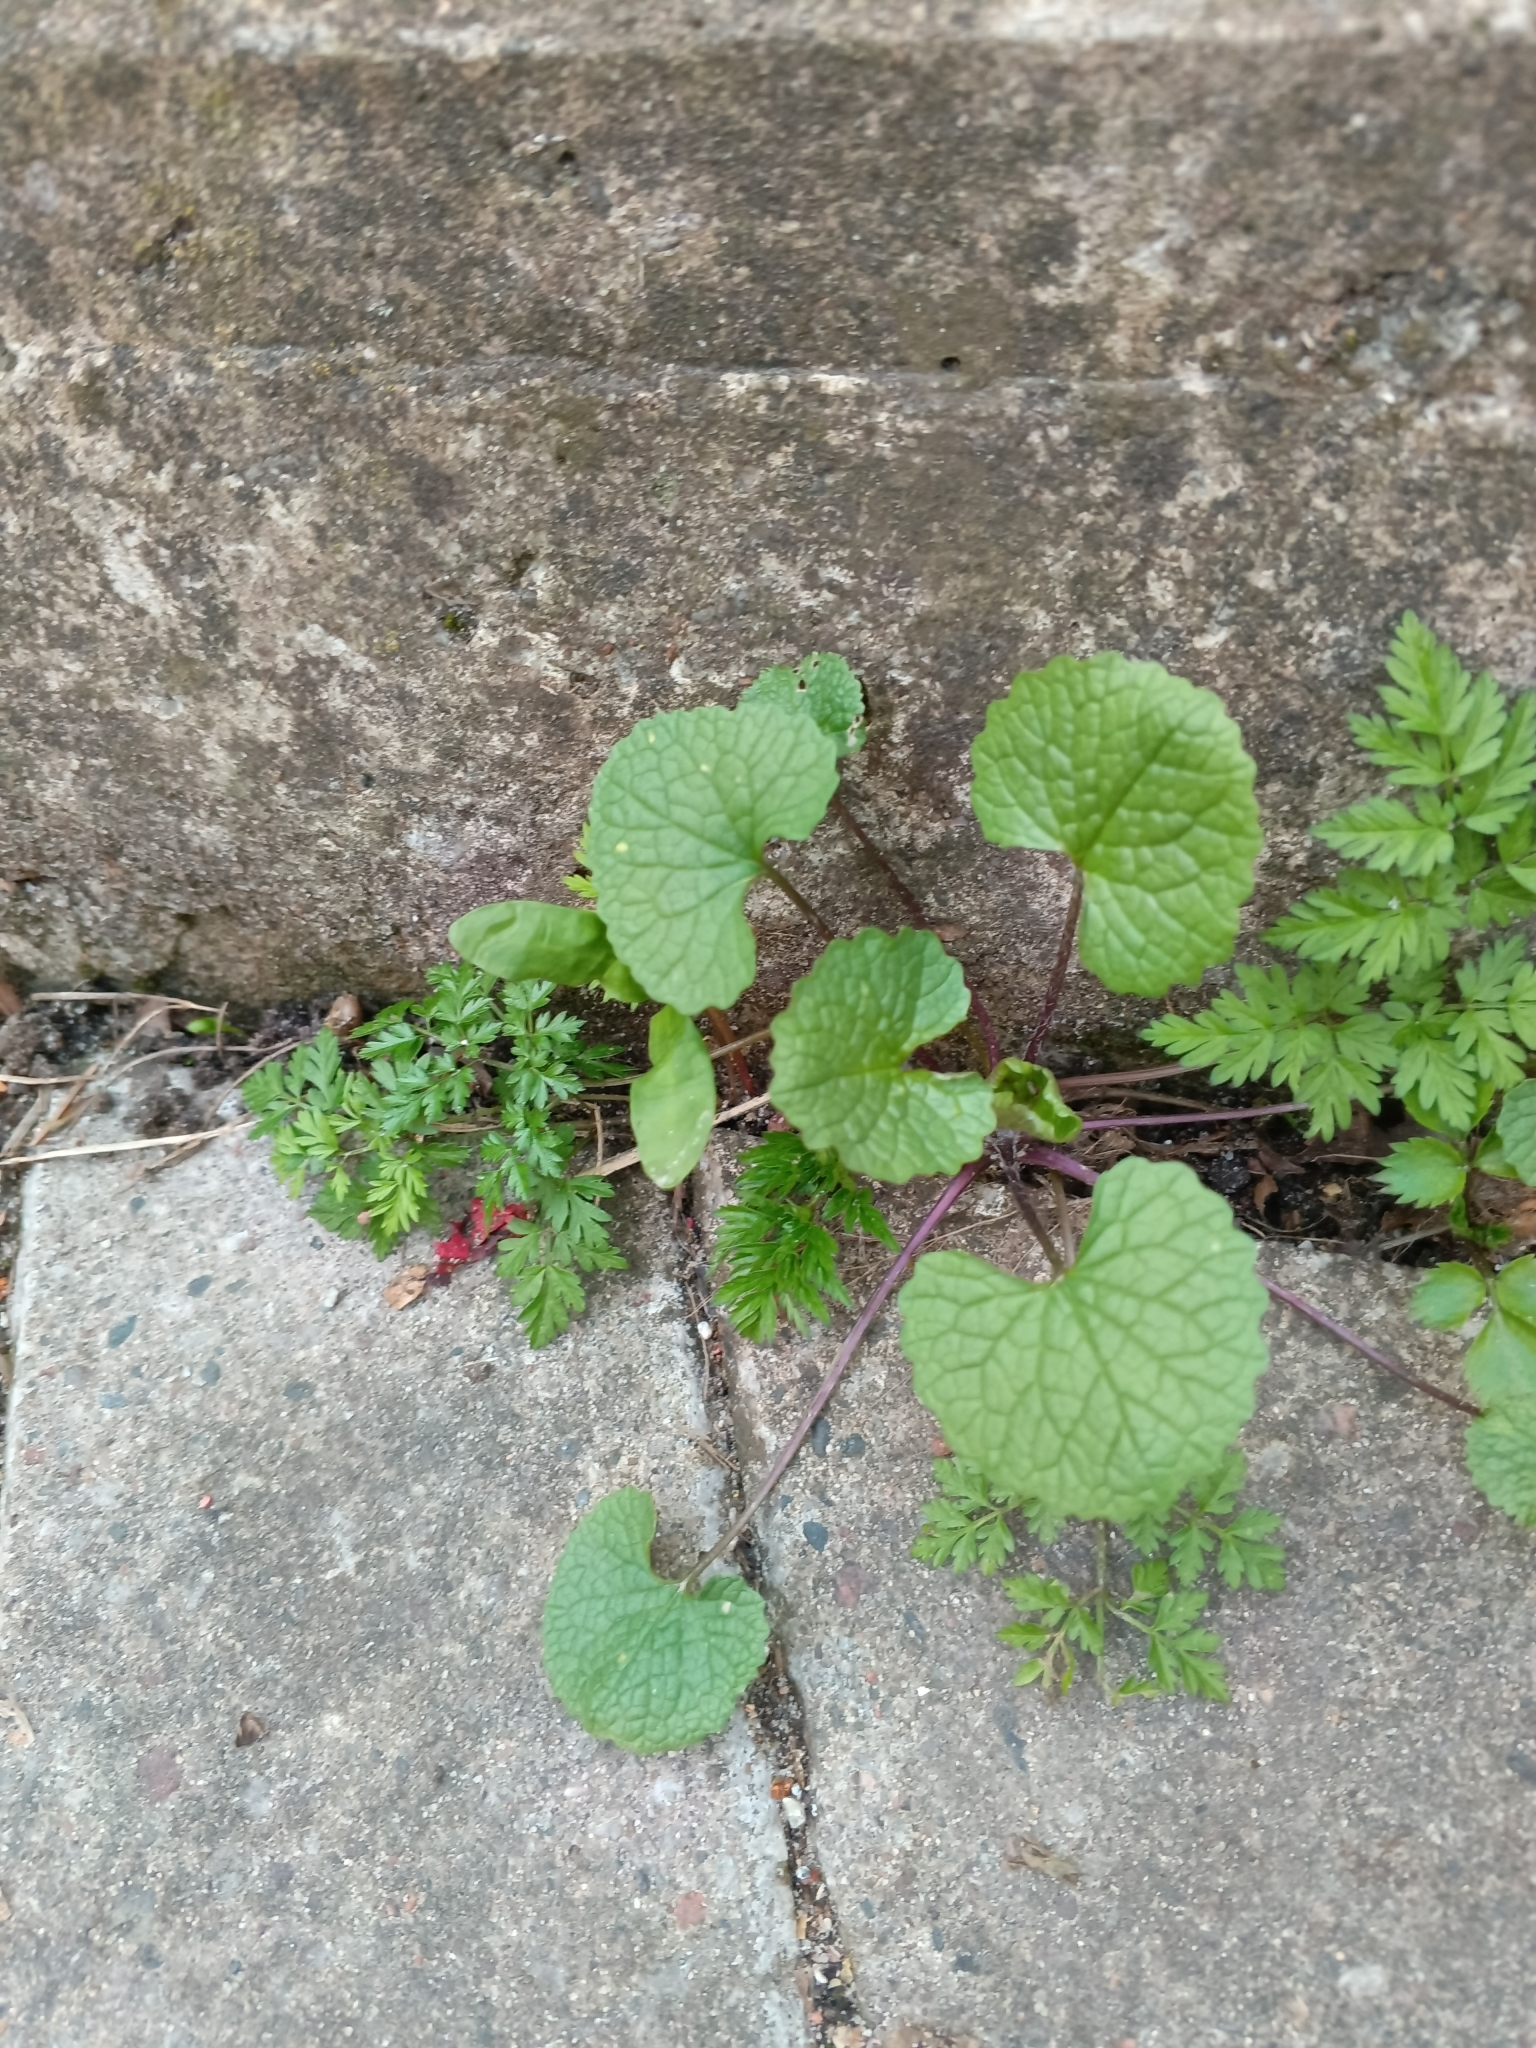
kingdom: Plantae
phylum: Tracheophyta
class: Magnoliopsida
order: Brassicales
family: Brassicaceae
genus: Alliaria
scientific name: Alliaria petiolata
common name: Garlic mustard
